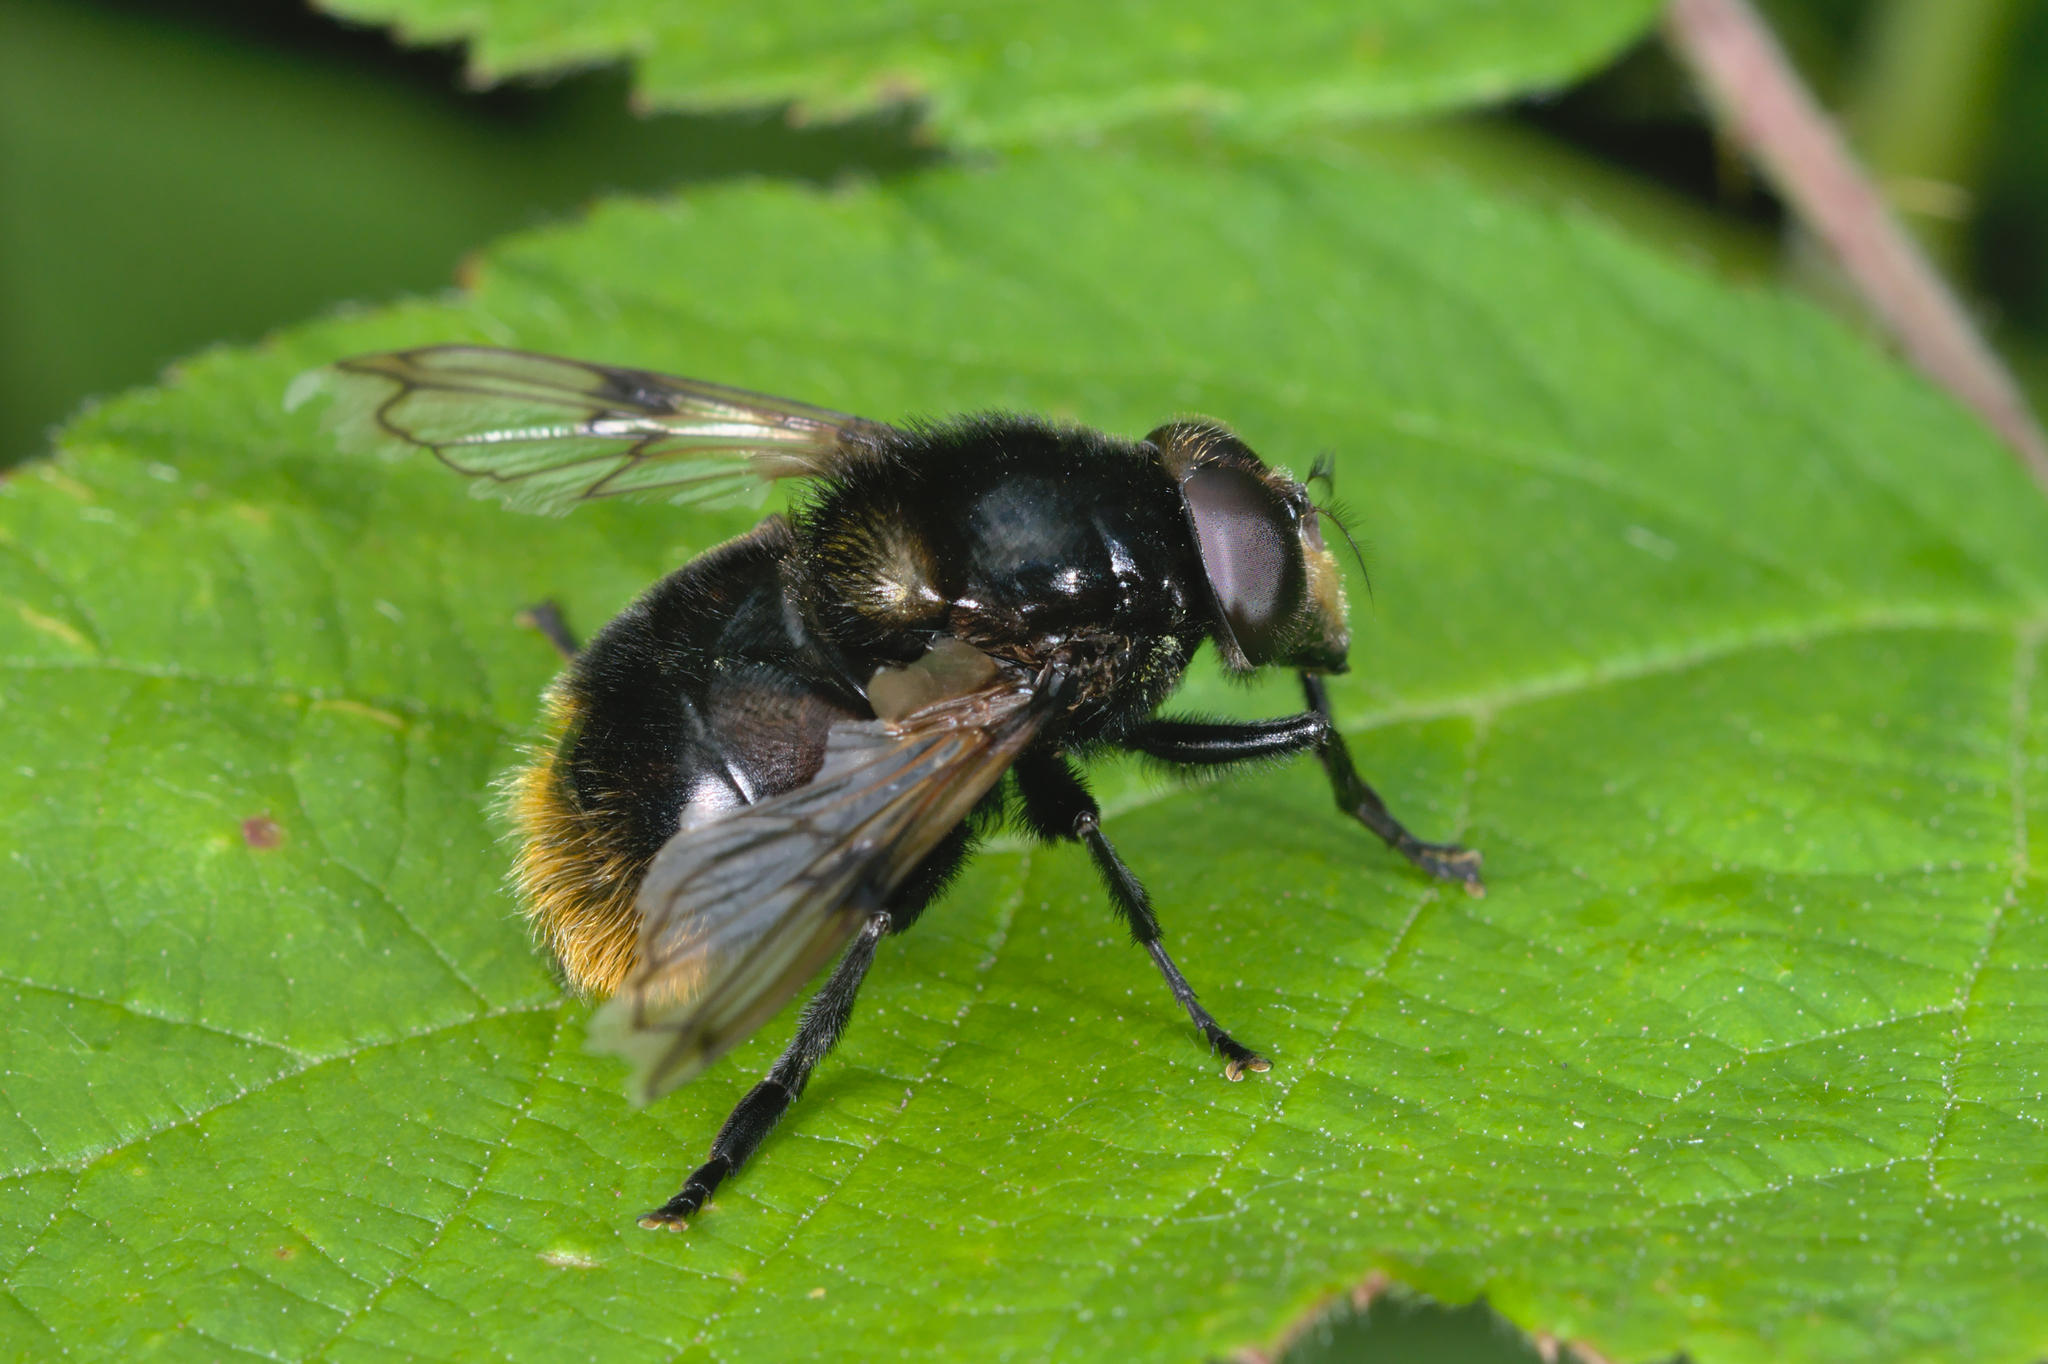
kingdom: Animalia
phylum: Arthropoda
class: Insecta
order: Diptera
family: Syrphidae
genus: Volucella
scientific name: Volucella bombylans
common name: Bumble bee hover fly
